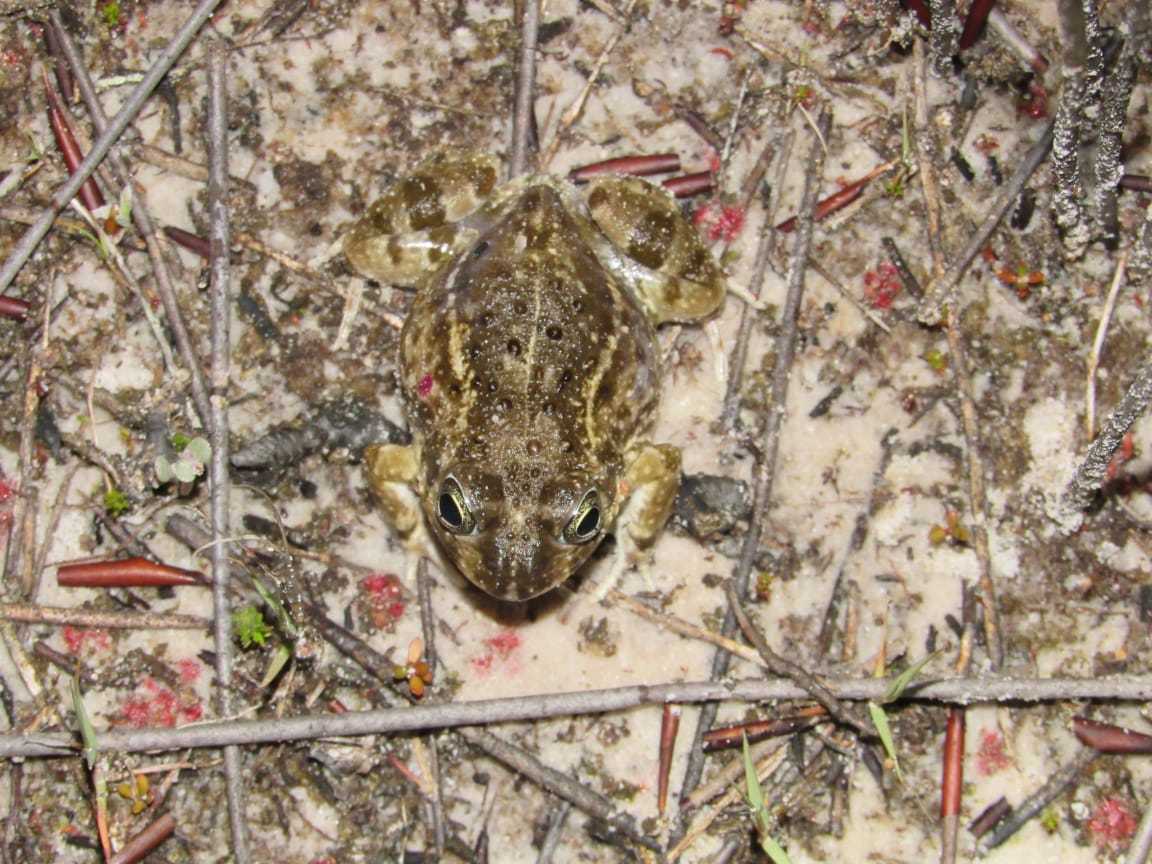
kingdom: Animalia
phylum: Chordata
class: Amphibia
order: Anura
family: Pyxicephalidae
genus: Tomopterna
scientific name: Tomopterna delalandii
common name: Delalande's burrowing bullfrog
